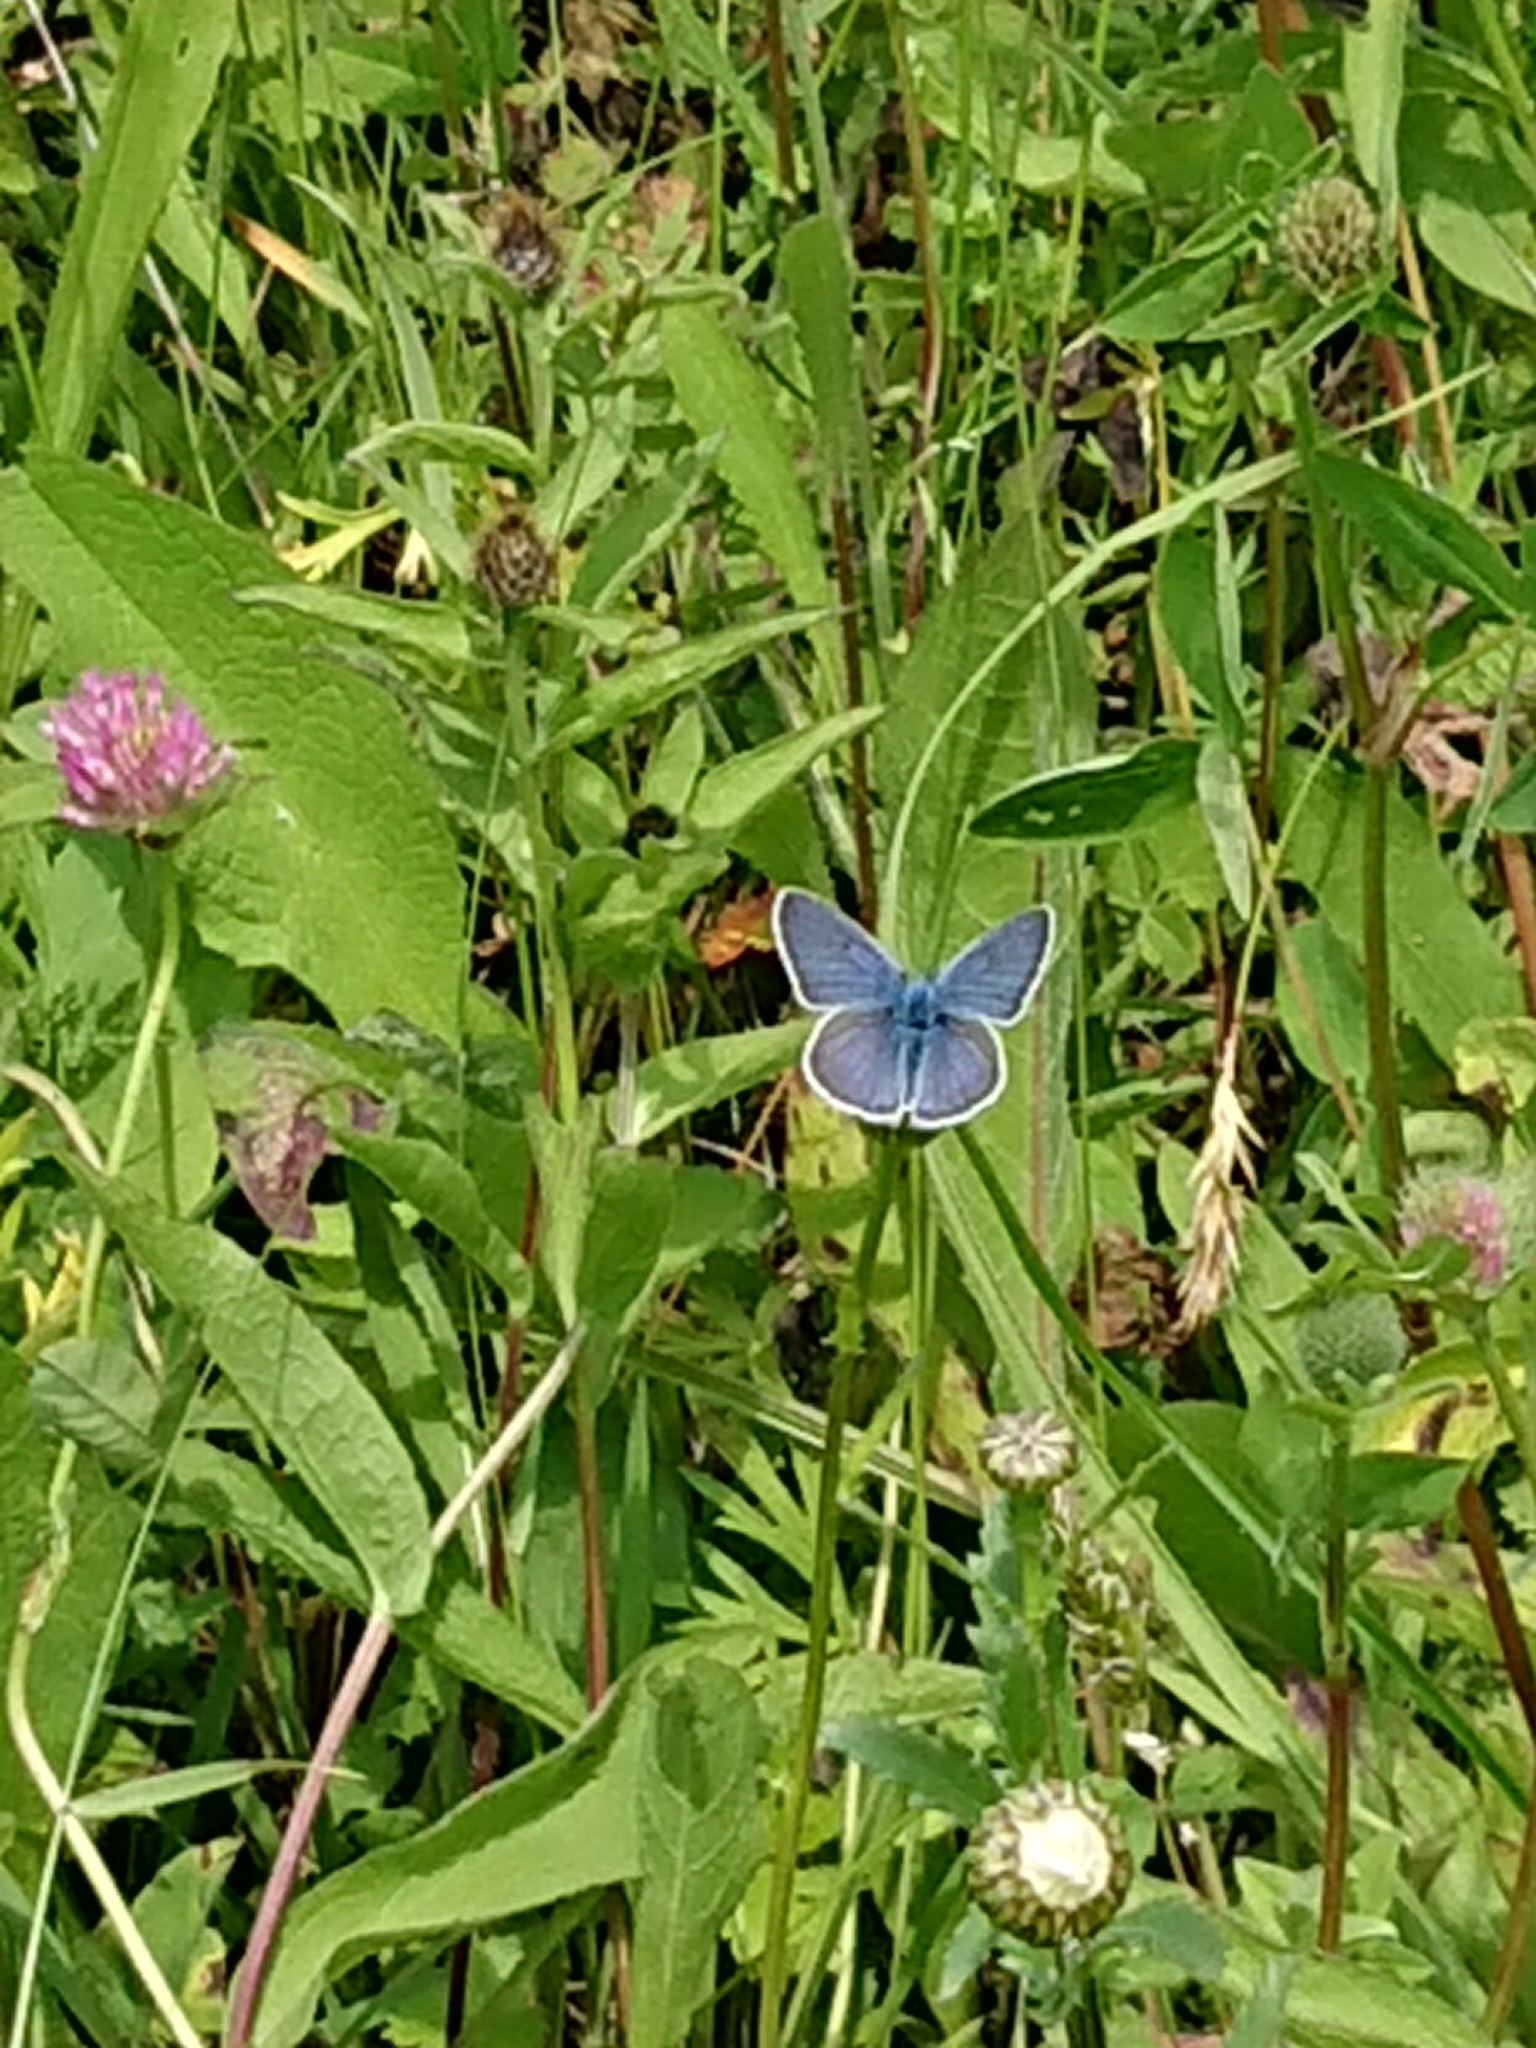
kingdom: Animalia
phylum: Arthropoda
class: Insecta
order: Lepidoptera
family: Lycaenidae
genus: Cyaniris
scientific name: Cyaniris semiargus
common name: Mazarine blue
